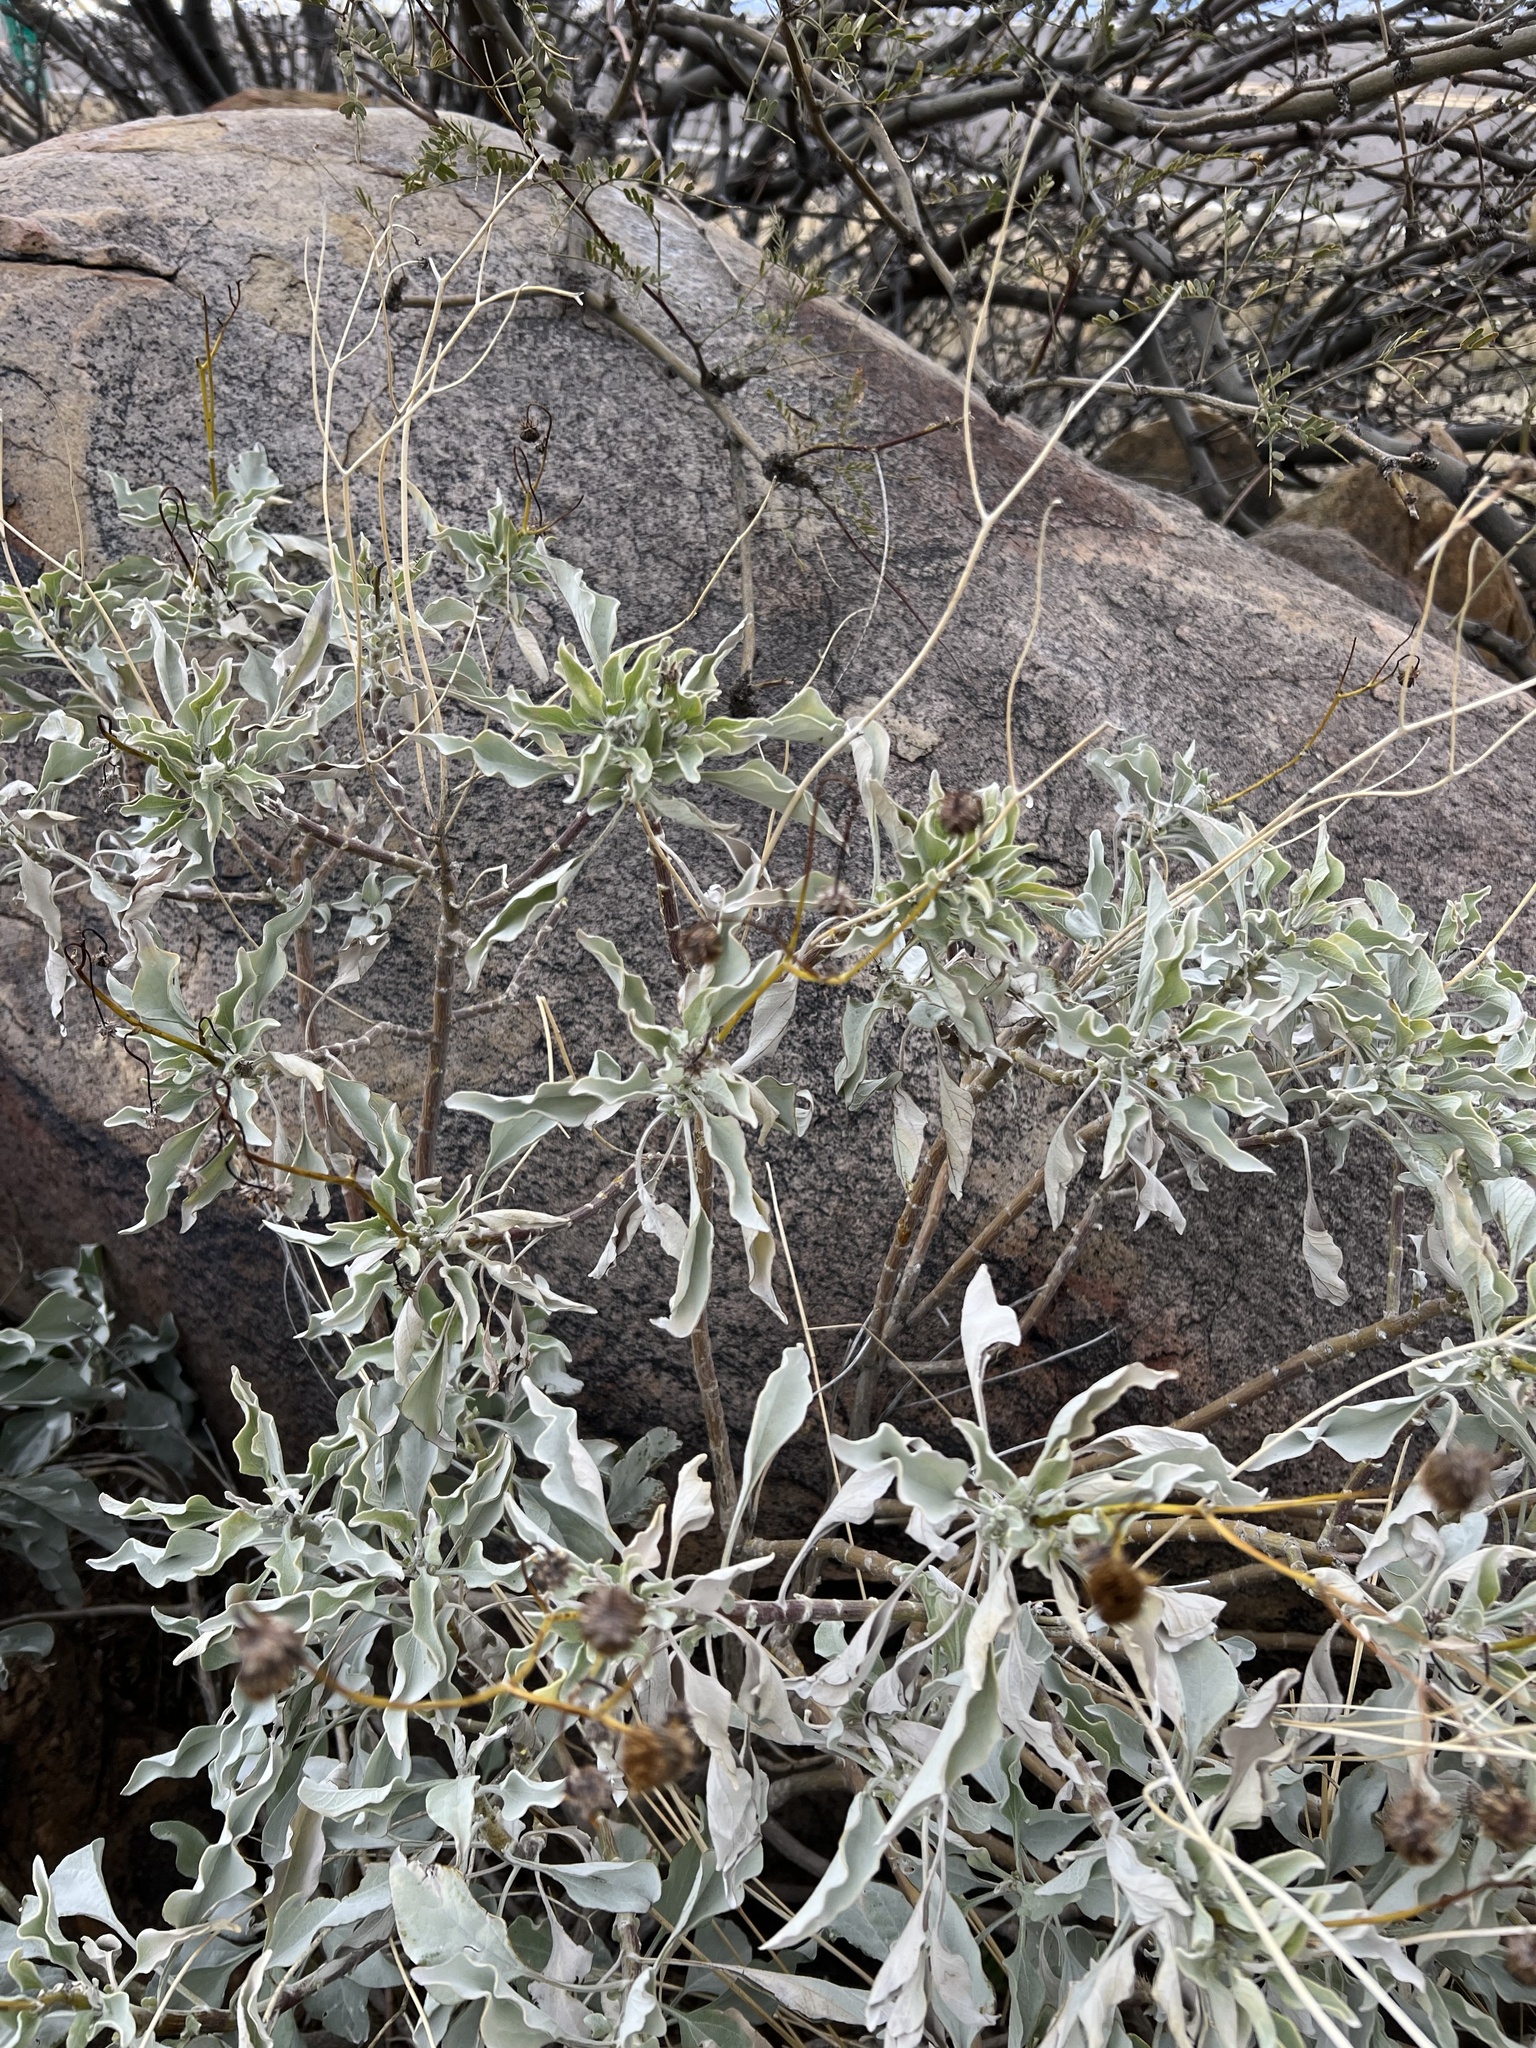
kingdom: Plantae
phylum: Tracheophyta
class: Magnoliopsida
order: Asterales
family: Asteraceae
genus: Encelia
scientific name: Encelia farinosa
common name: Brittlebush
